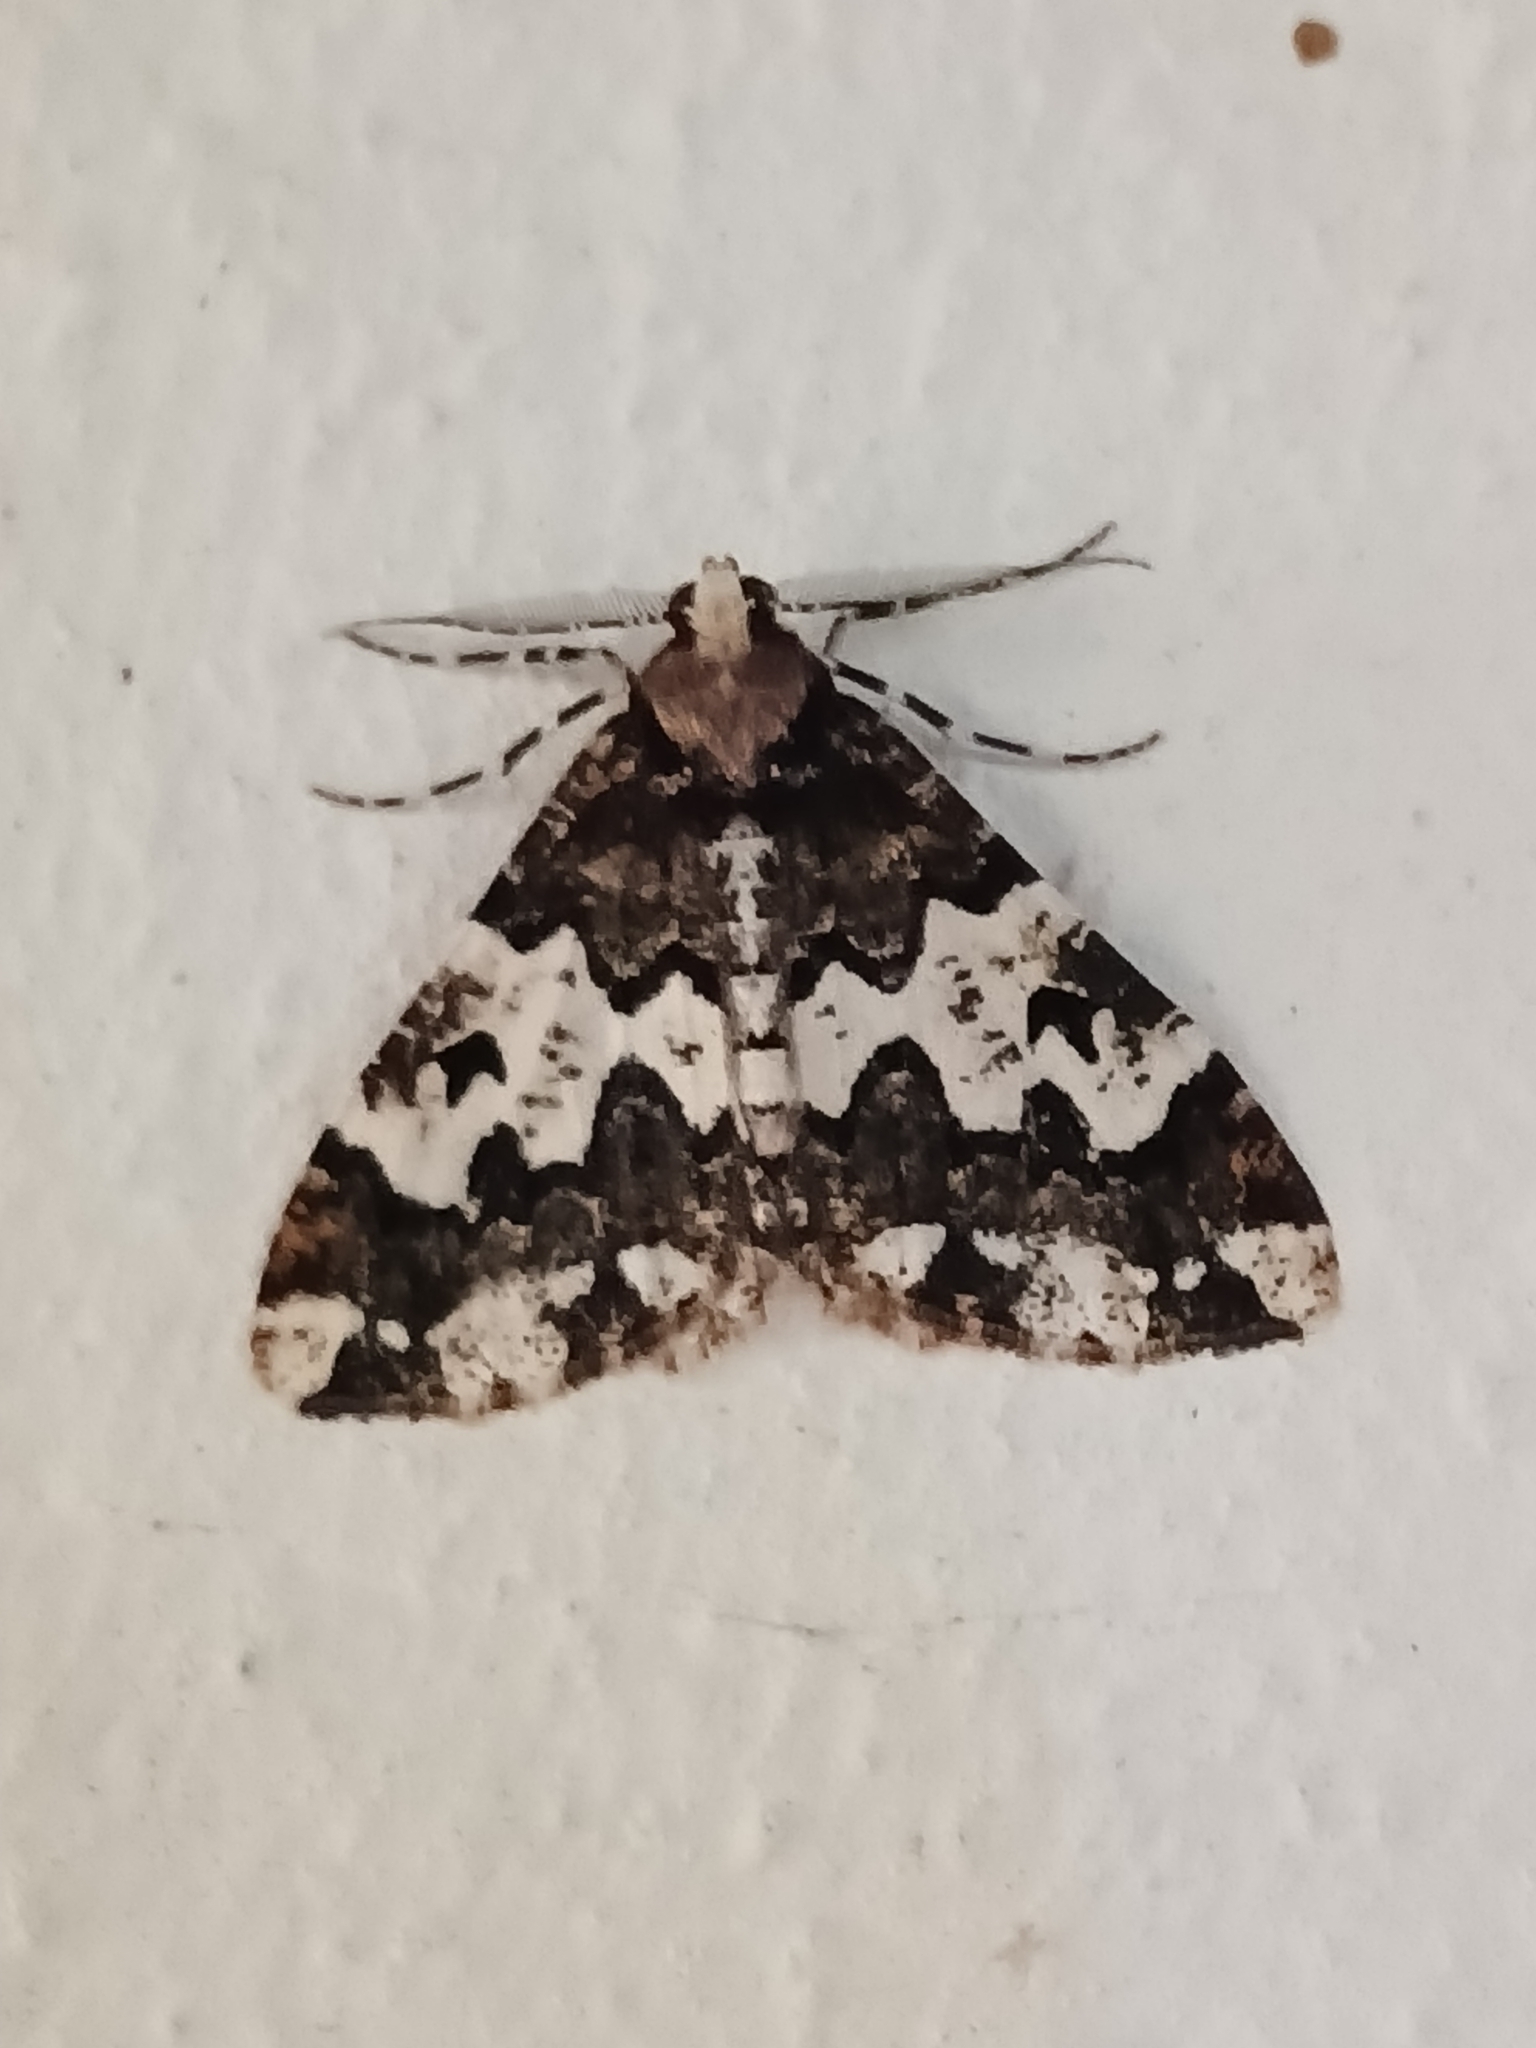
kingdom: Animalia
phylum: Arthropoda
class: Insecta
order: Lepidoptera
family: Geometridae
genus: Oedicentra
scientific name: Oedicentra albipennis
